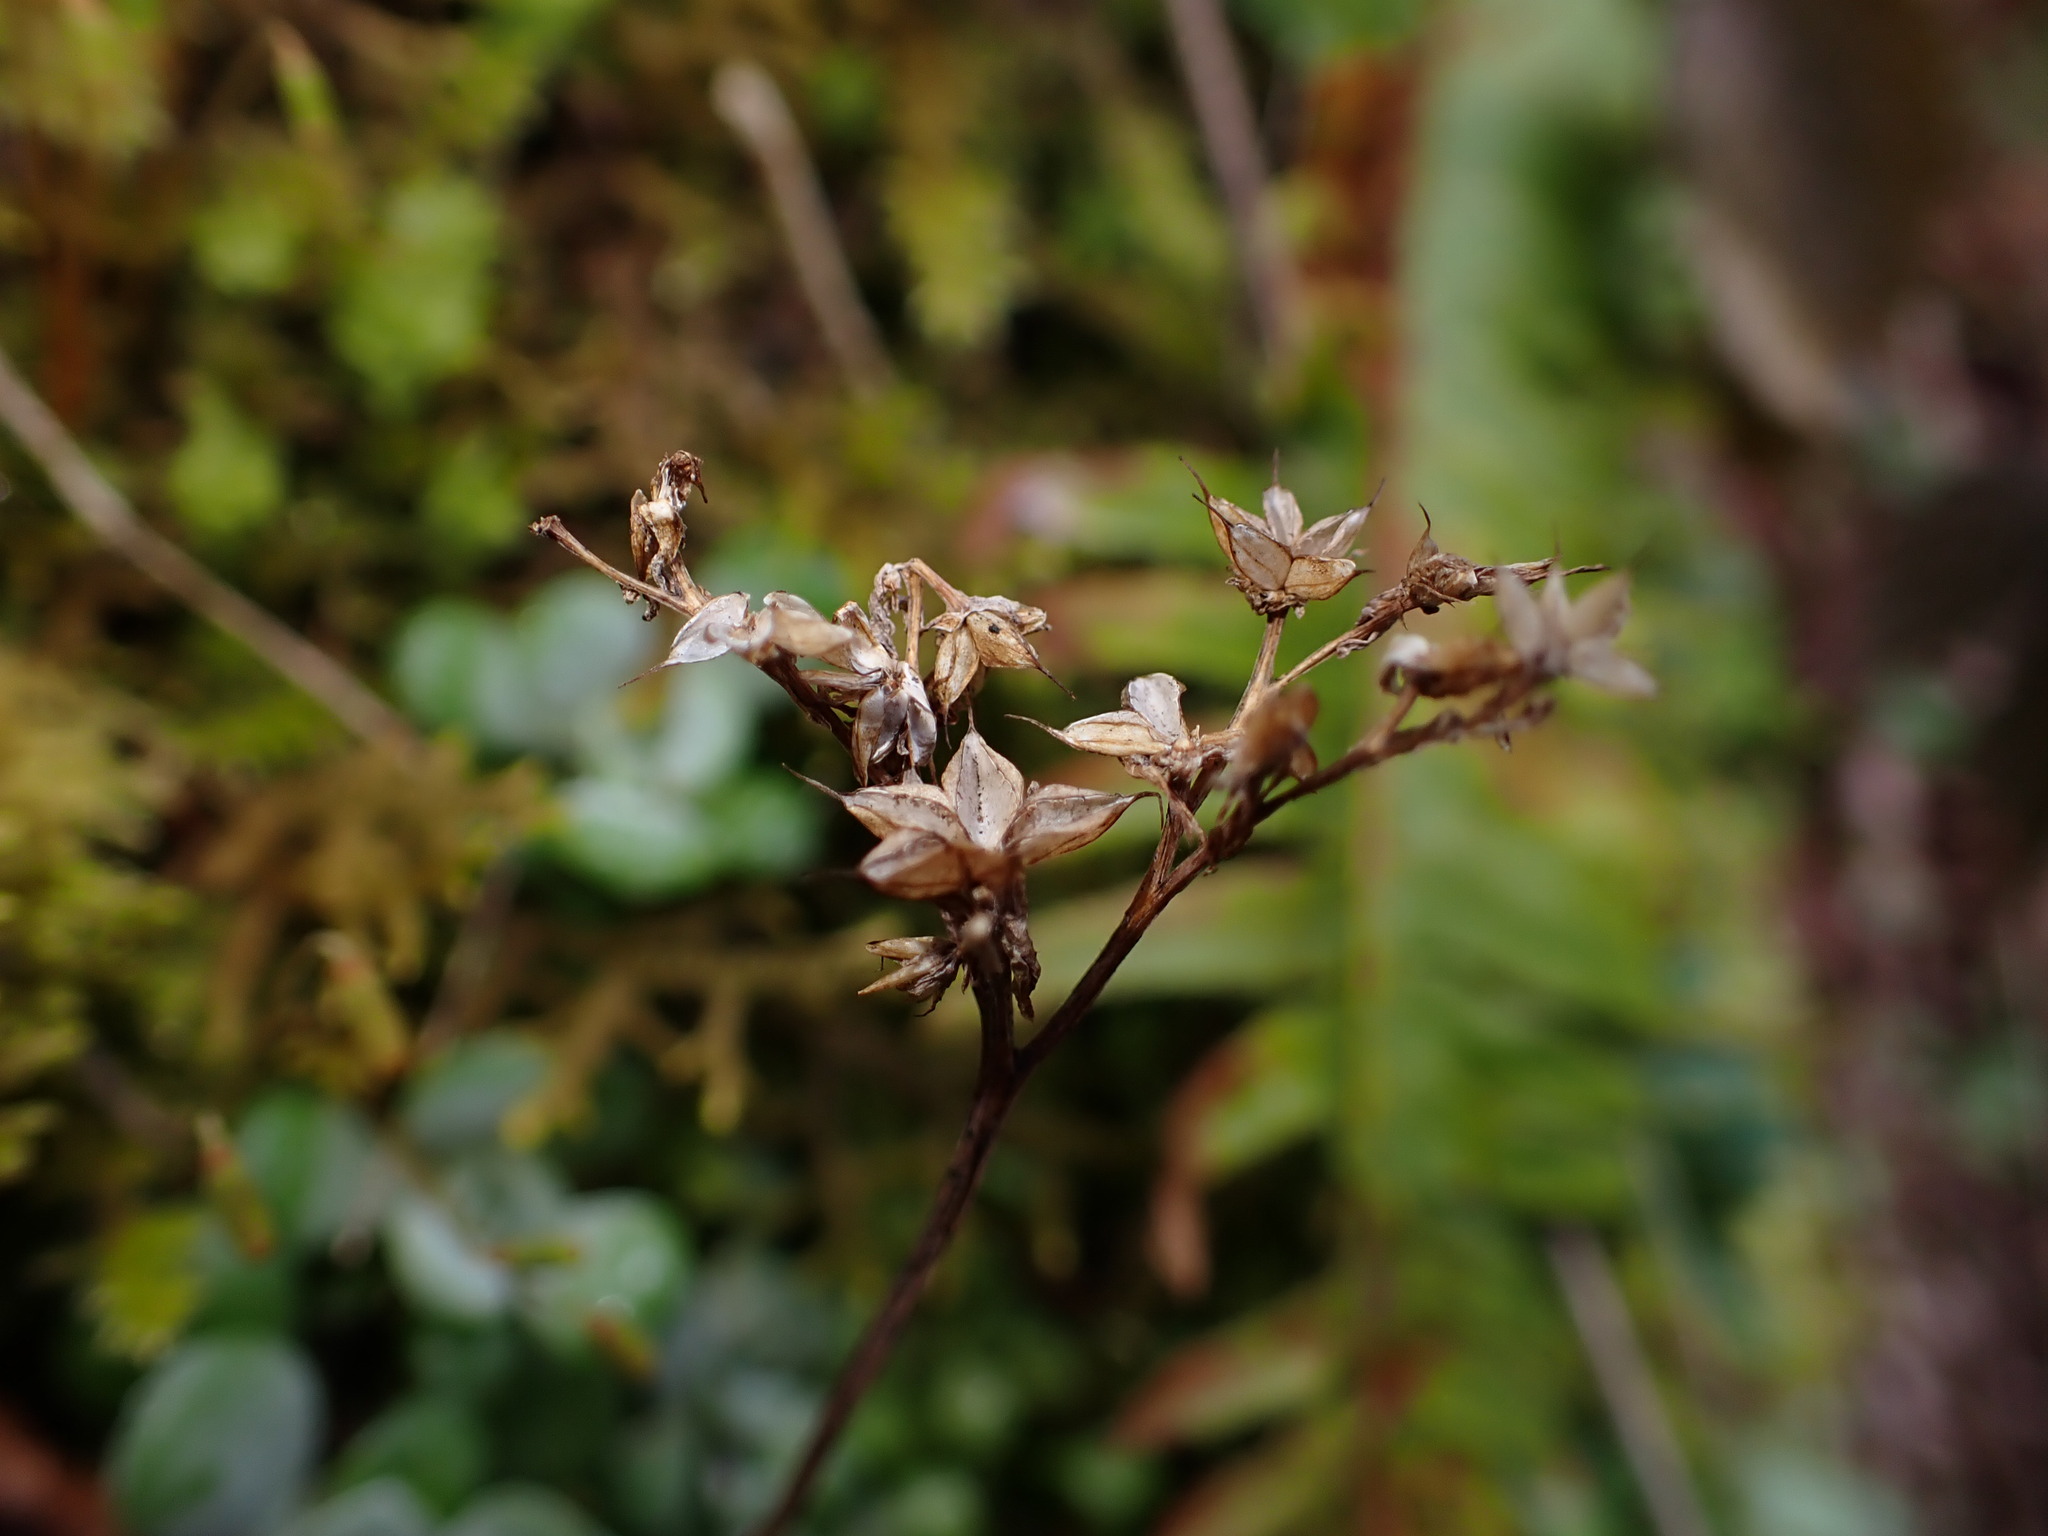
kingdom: Plantae
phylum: Tracheophyta
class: Magnoliopsida
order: Saxifragales
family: Crassulaceae
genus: Sedum
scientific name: Sedum spathulifolium
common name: Colorado stonecrop
